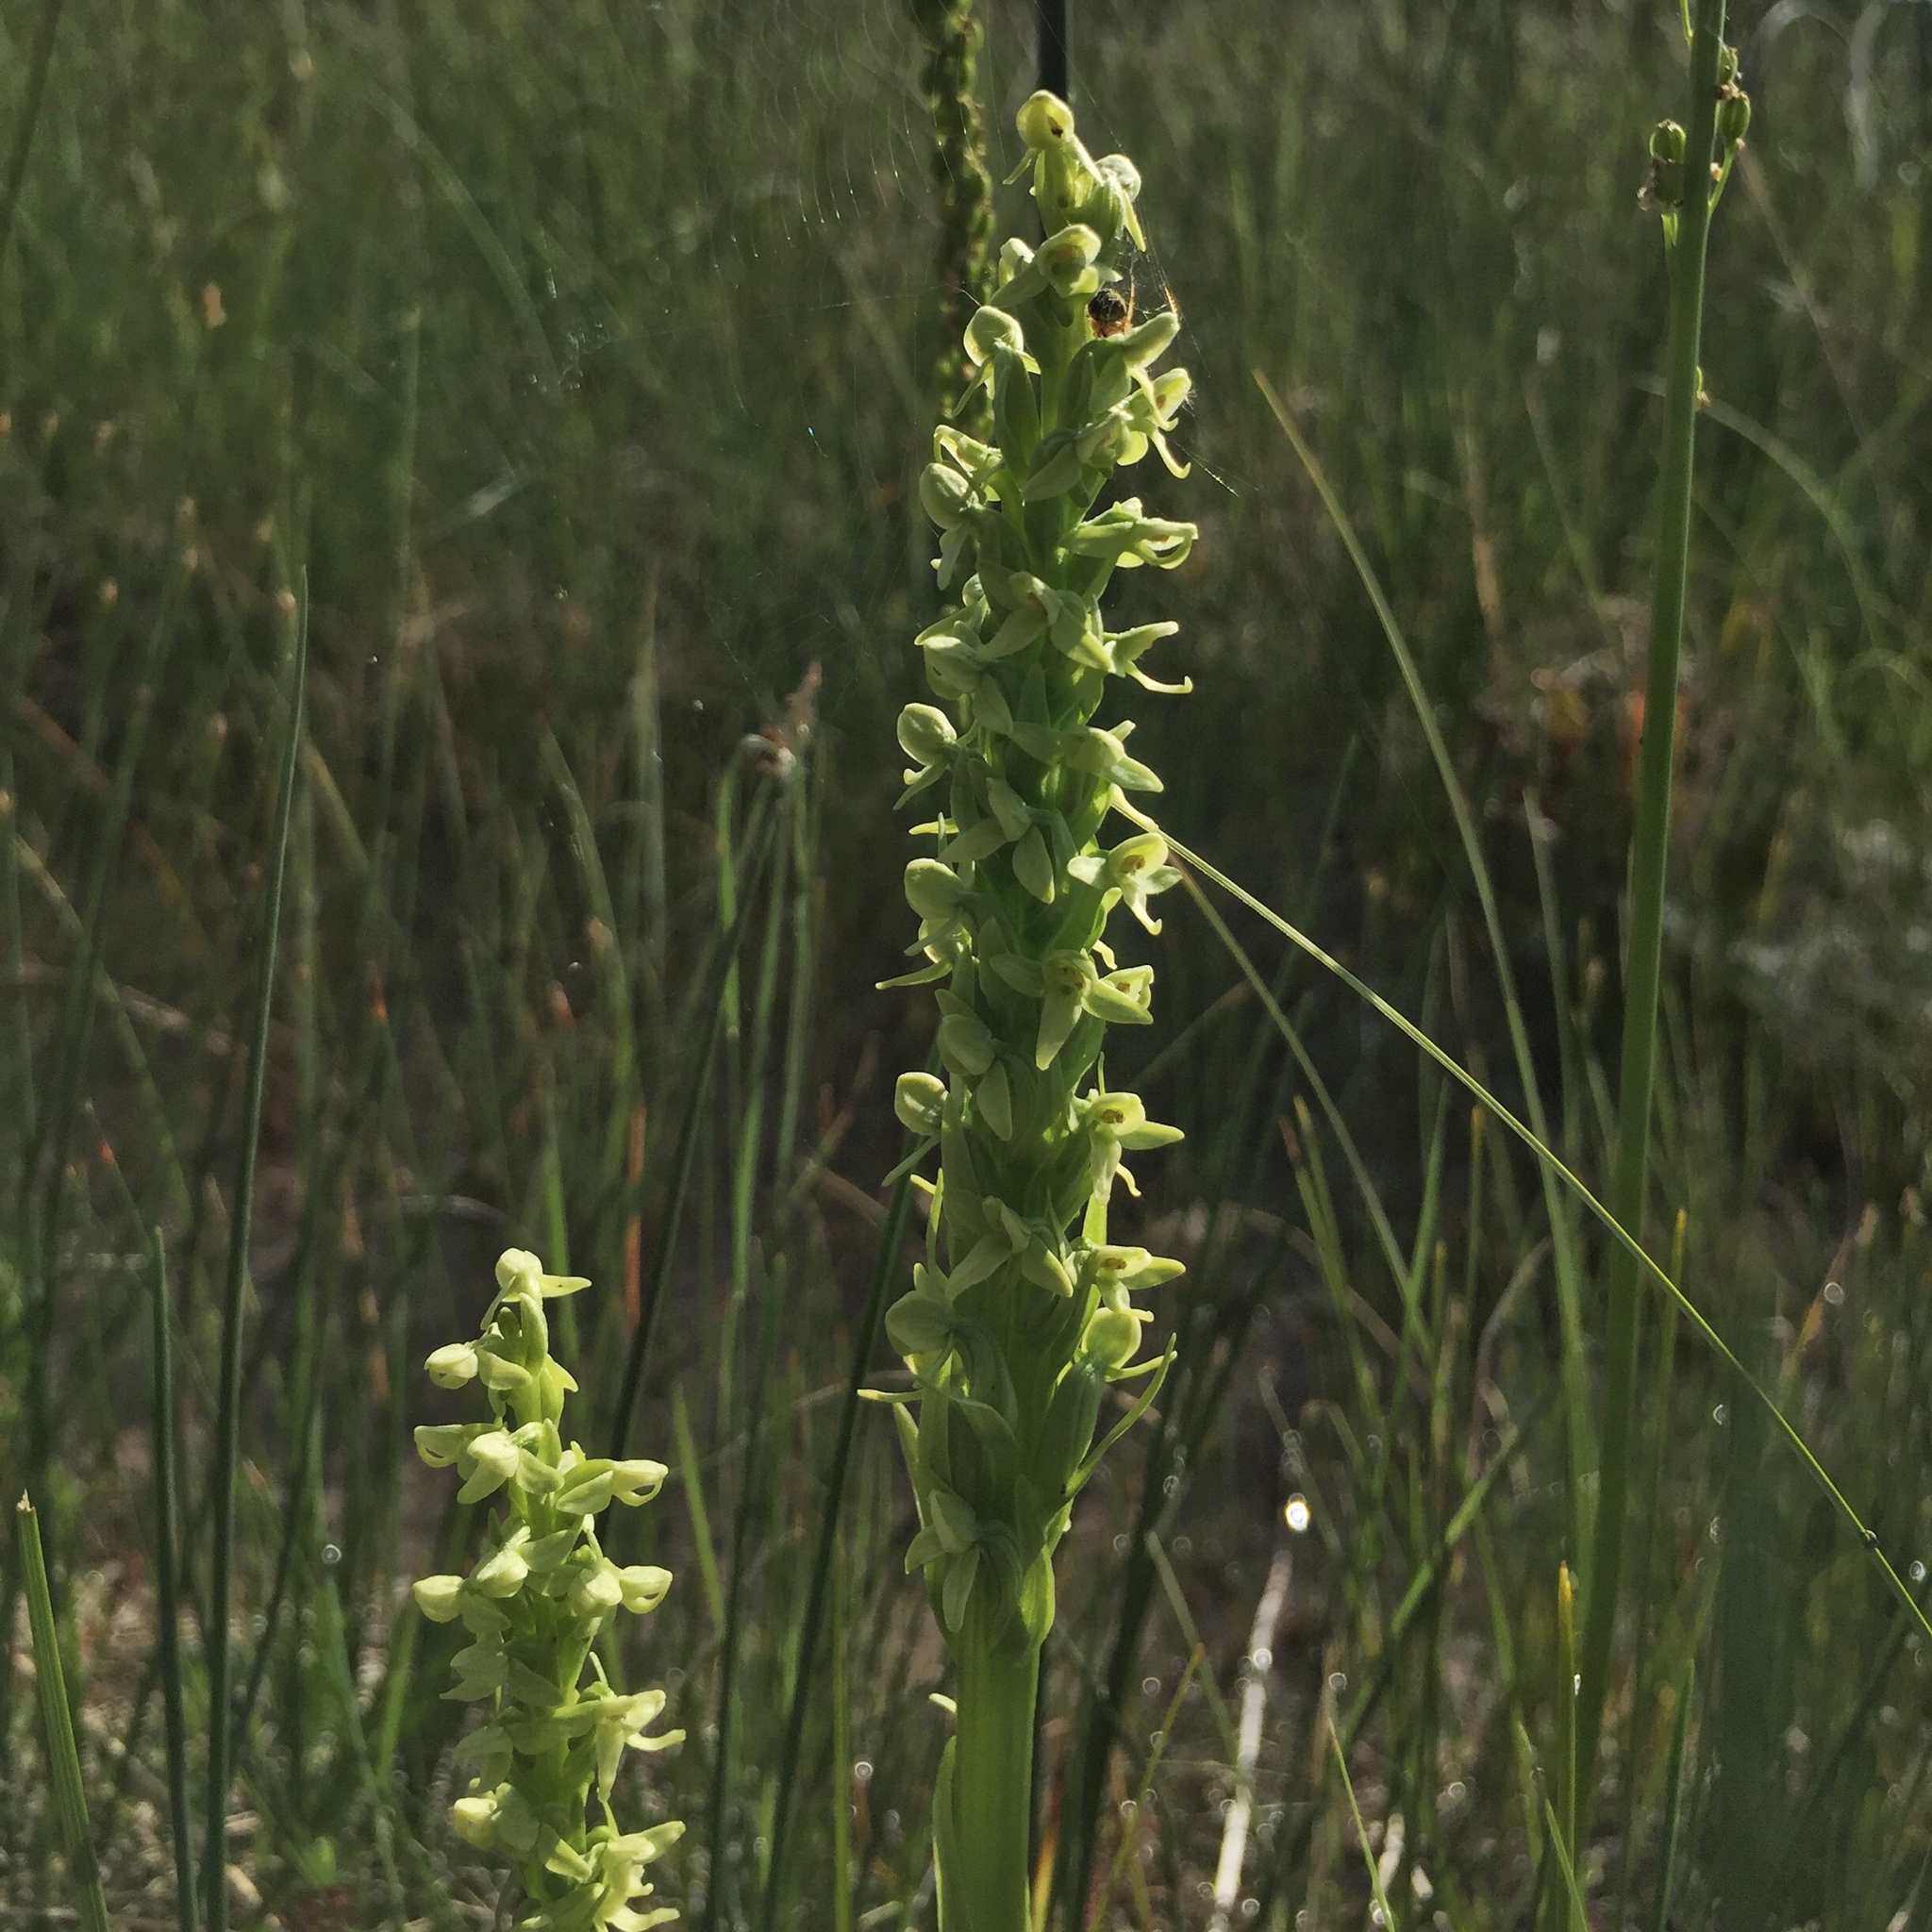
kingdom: Plantae
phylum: Tracheophyta
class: Liliopsida
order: Asparagales
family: Orchidaceae
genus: Platanthera
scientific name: Platanthera huronensis
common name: Fragrant green orchid
